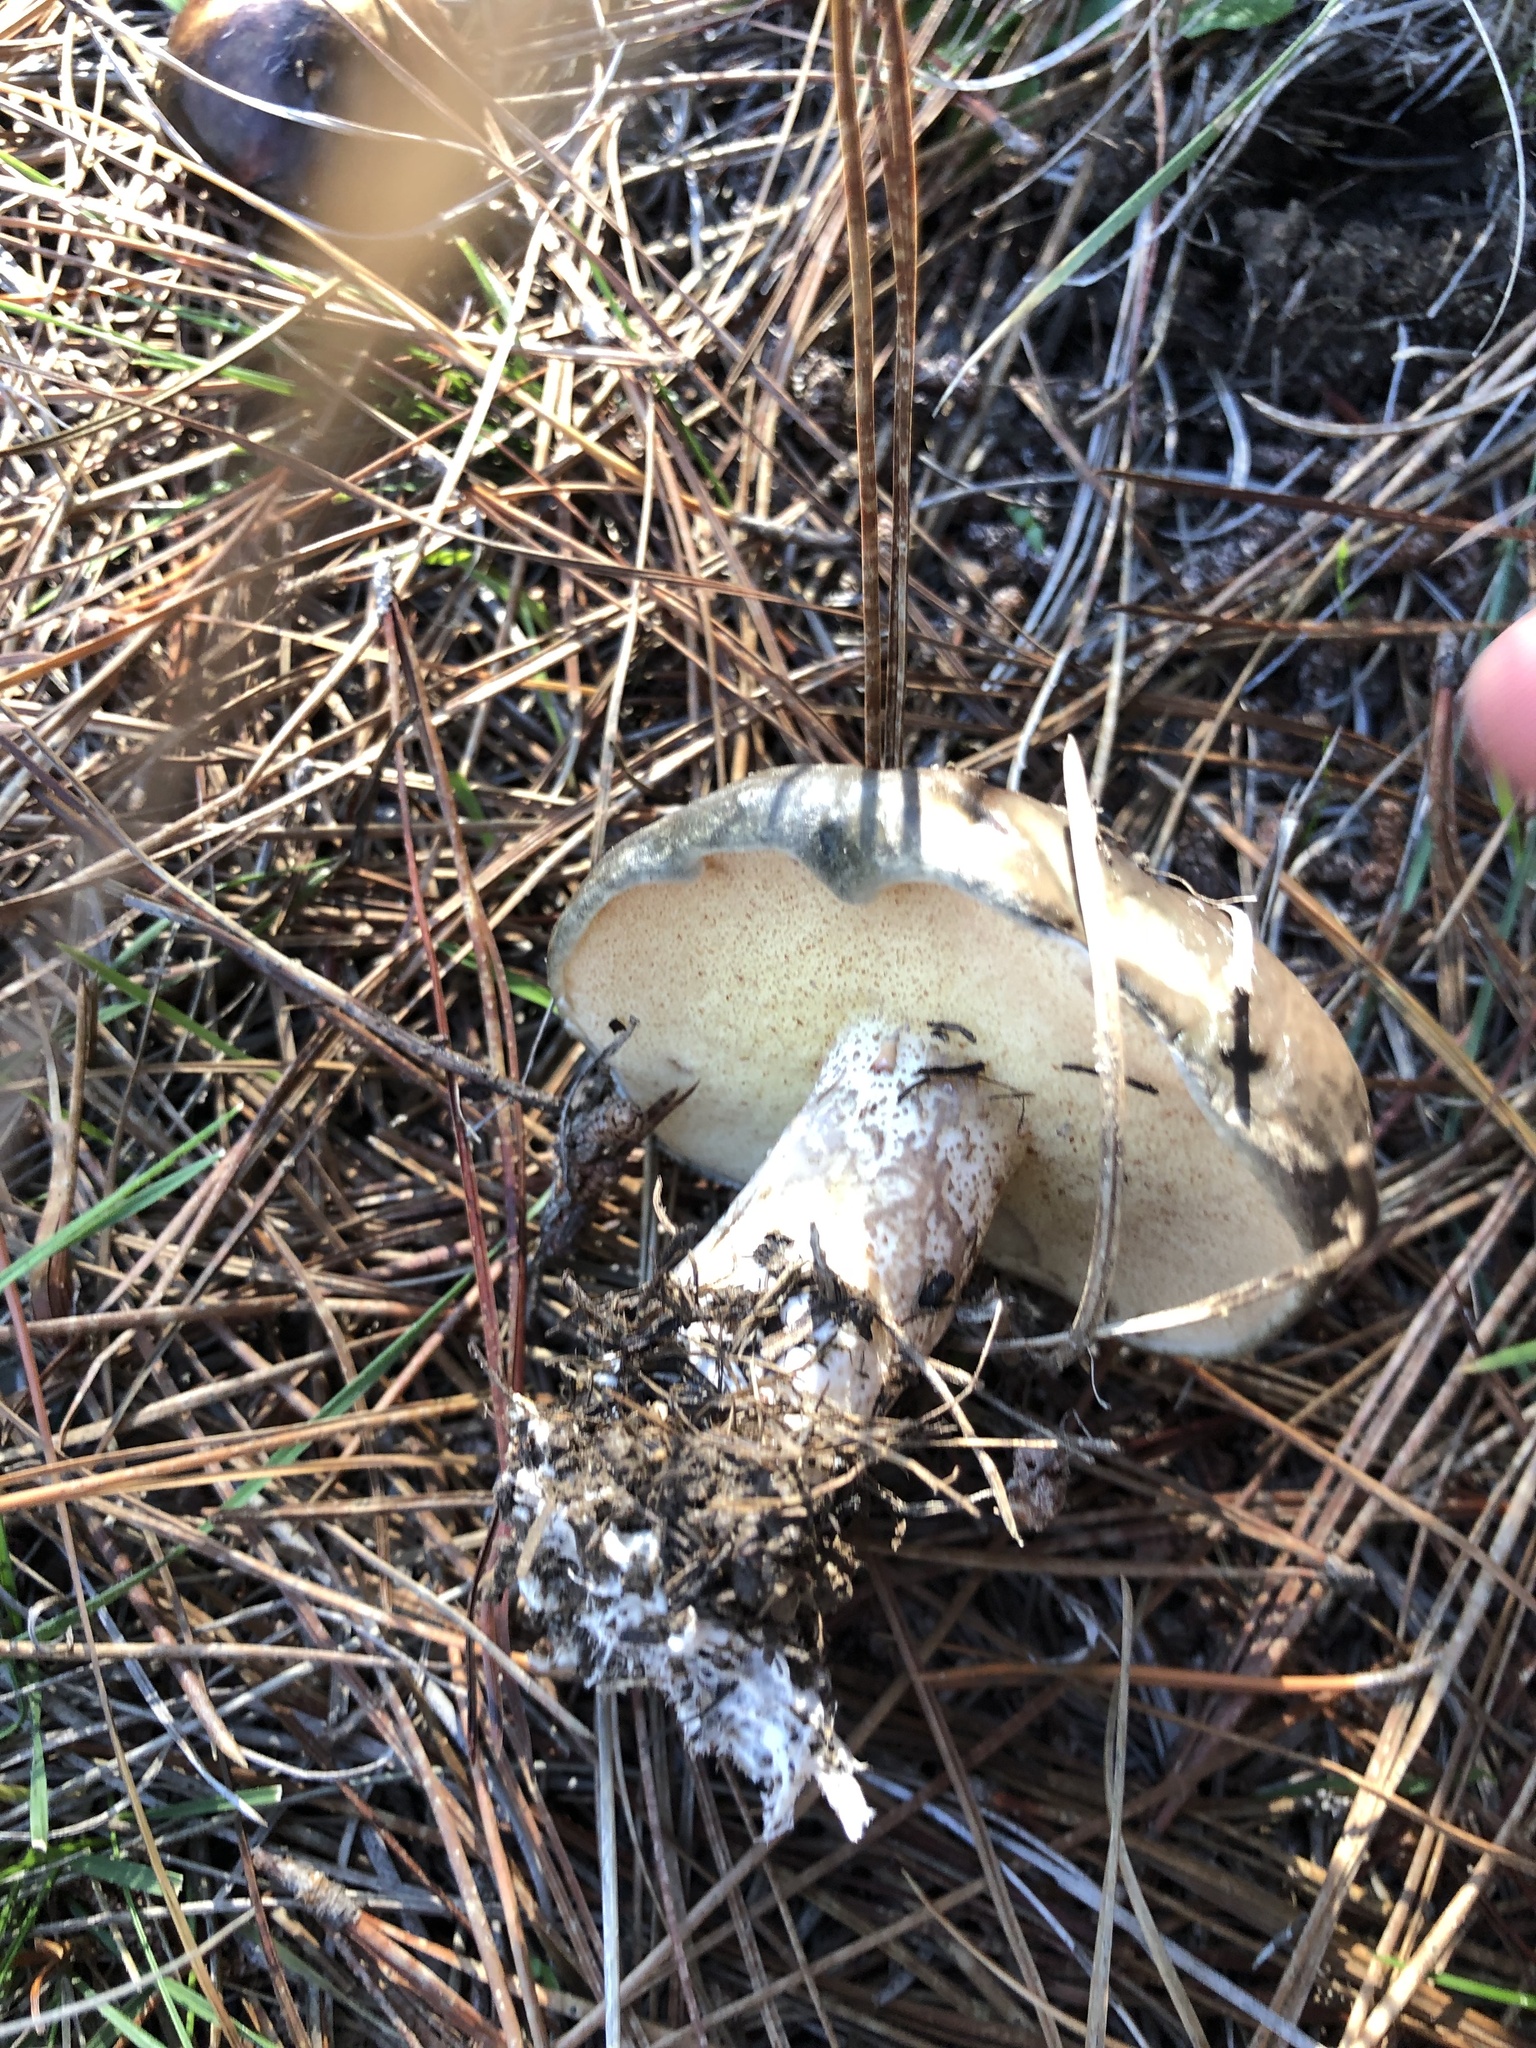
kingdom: Fungi
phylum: Basidiomycota
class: Agaricomycetes
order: Boletales
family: Suillaceae
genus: Suillus
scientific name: Suillus pungens
